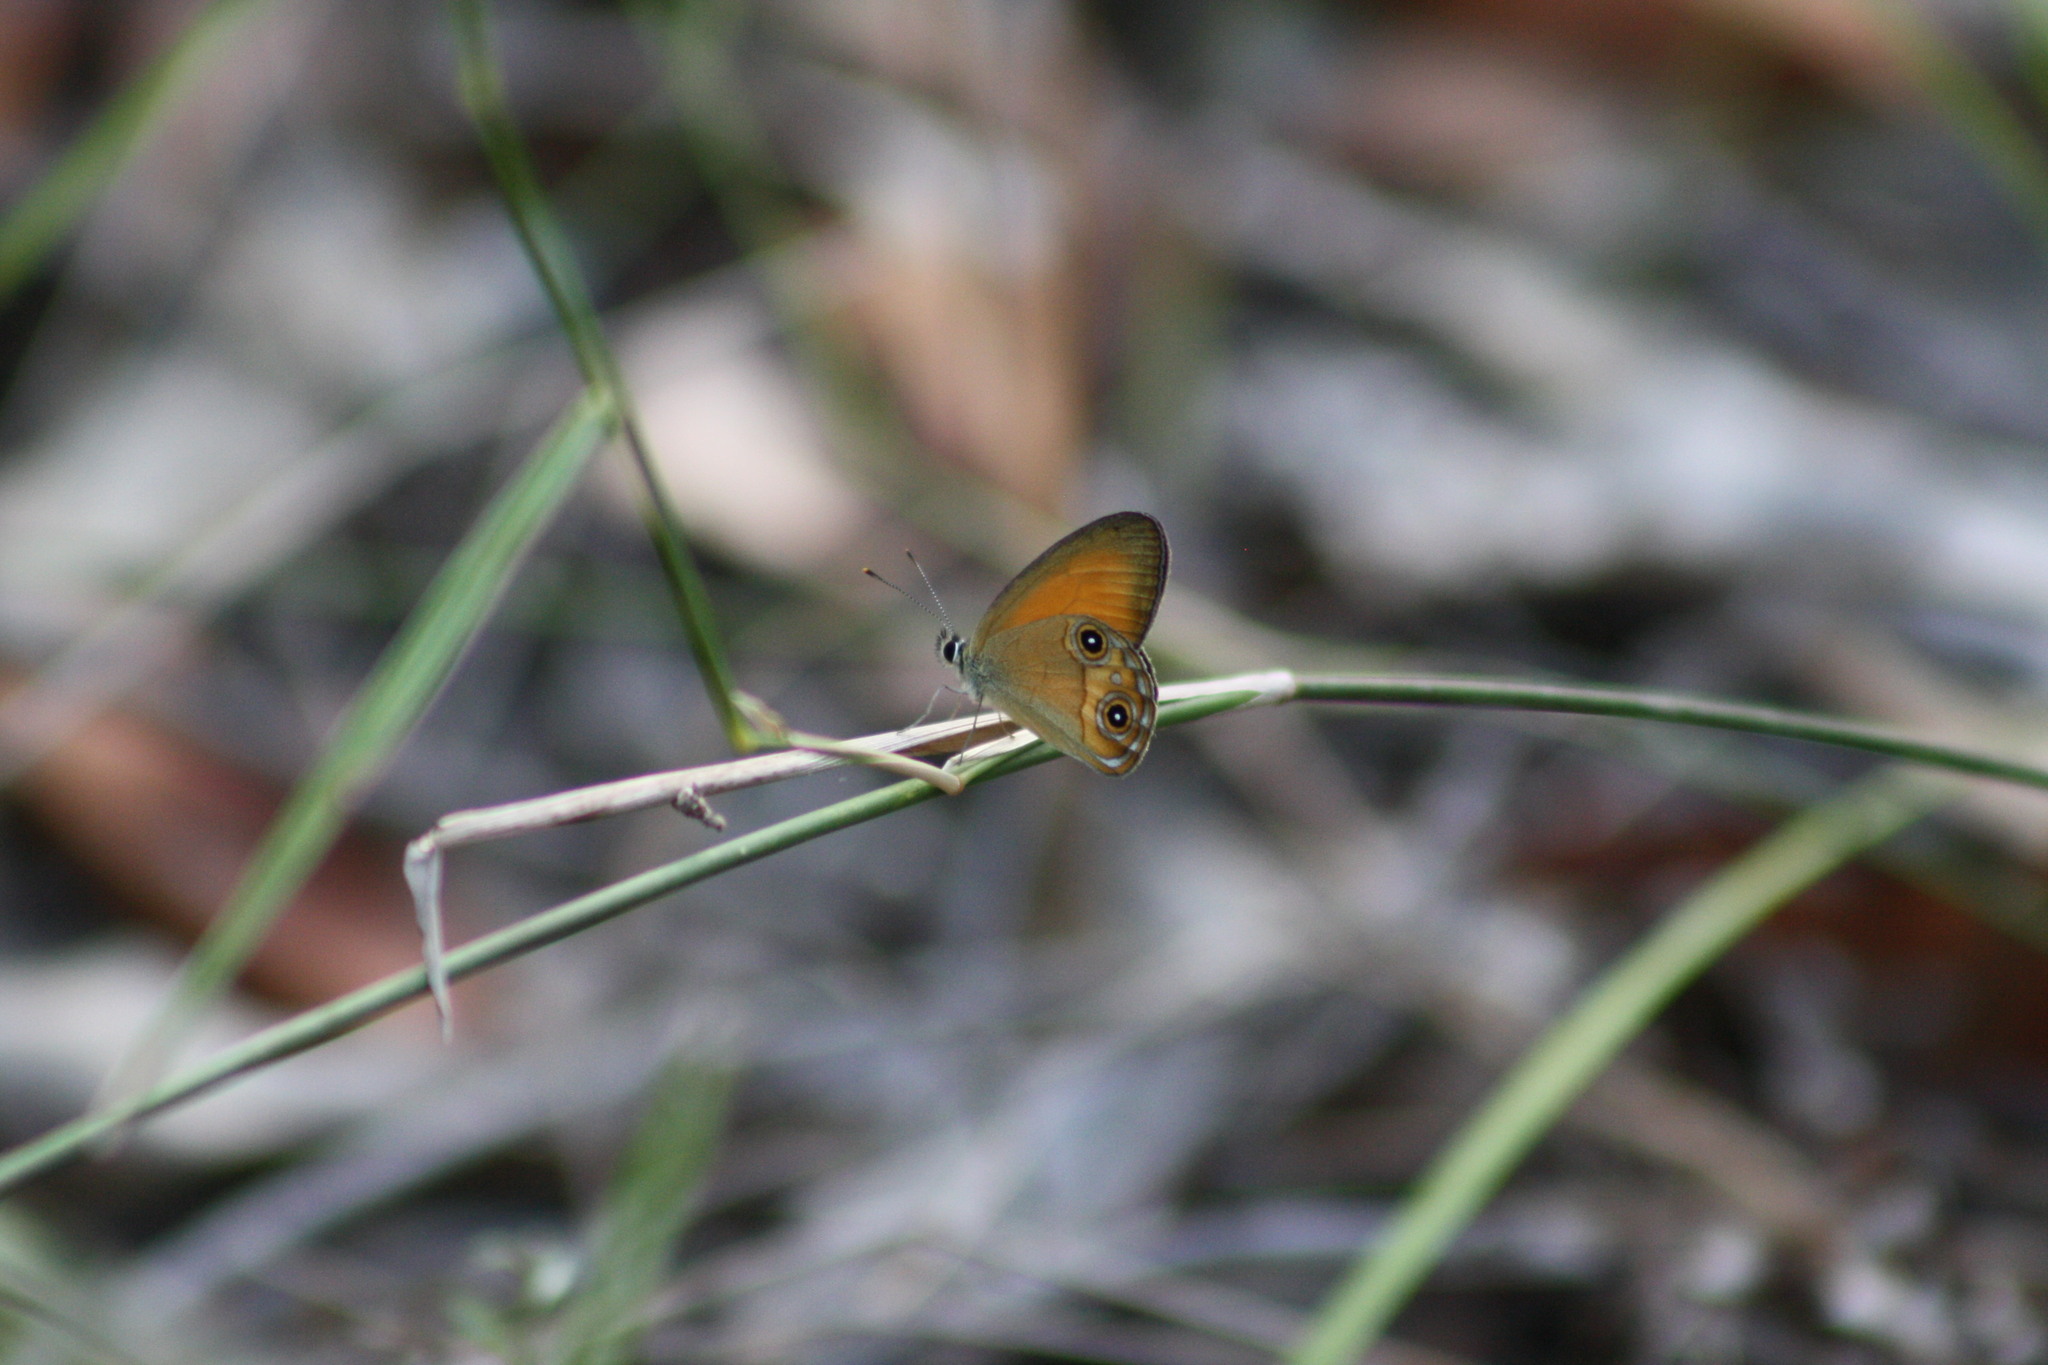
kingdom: Animalia
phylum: Arthropoda
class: Insecta
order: Lepidoptera
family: Nymphalidae
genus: Hypocysta
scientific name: Hypocysta adiante
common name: Orange ringlet
